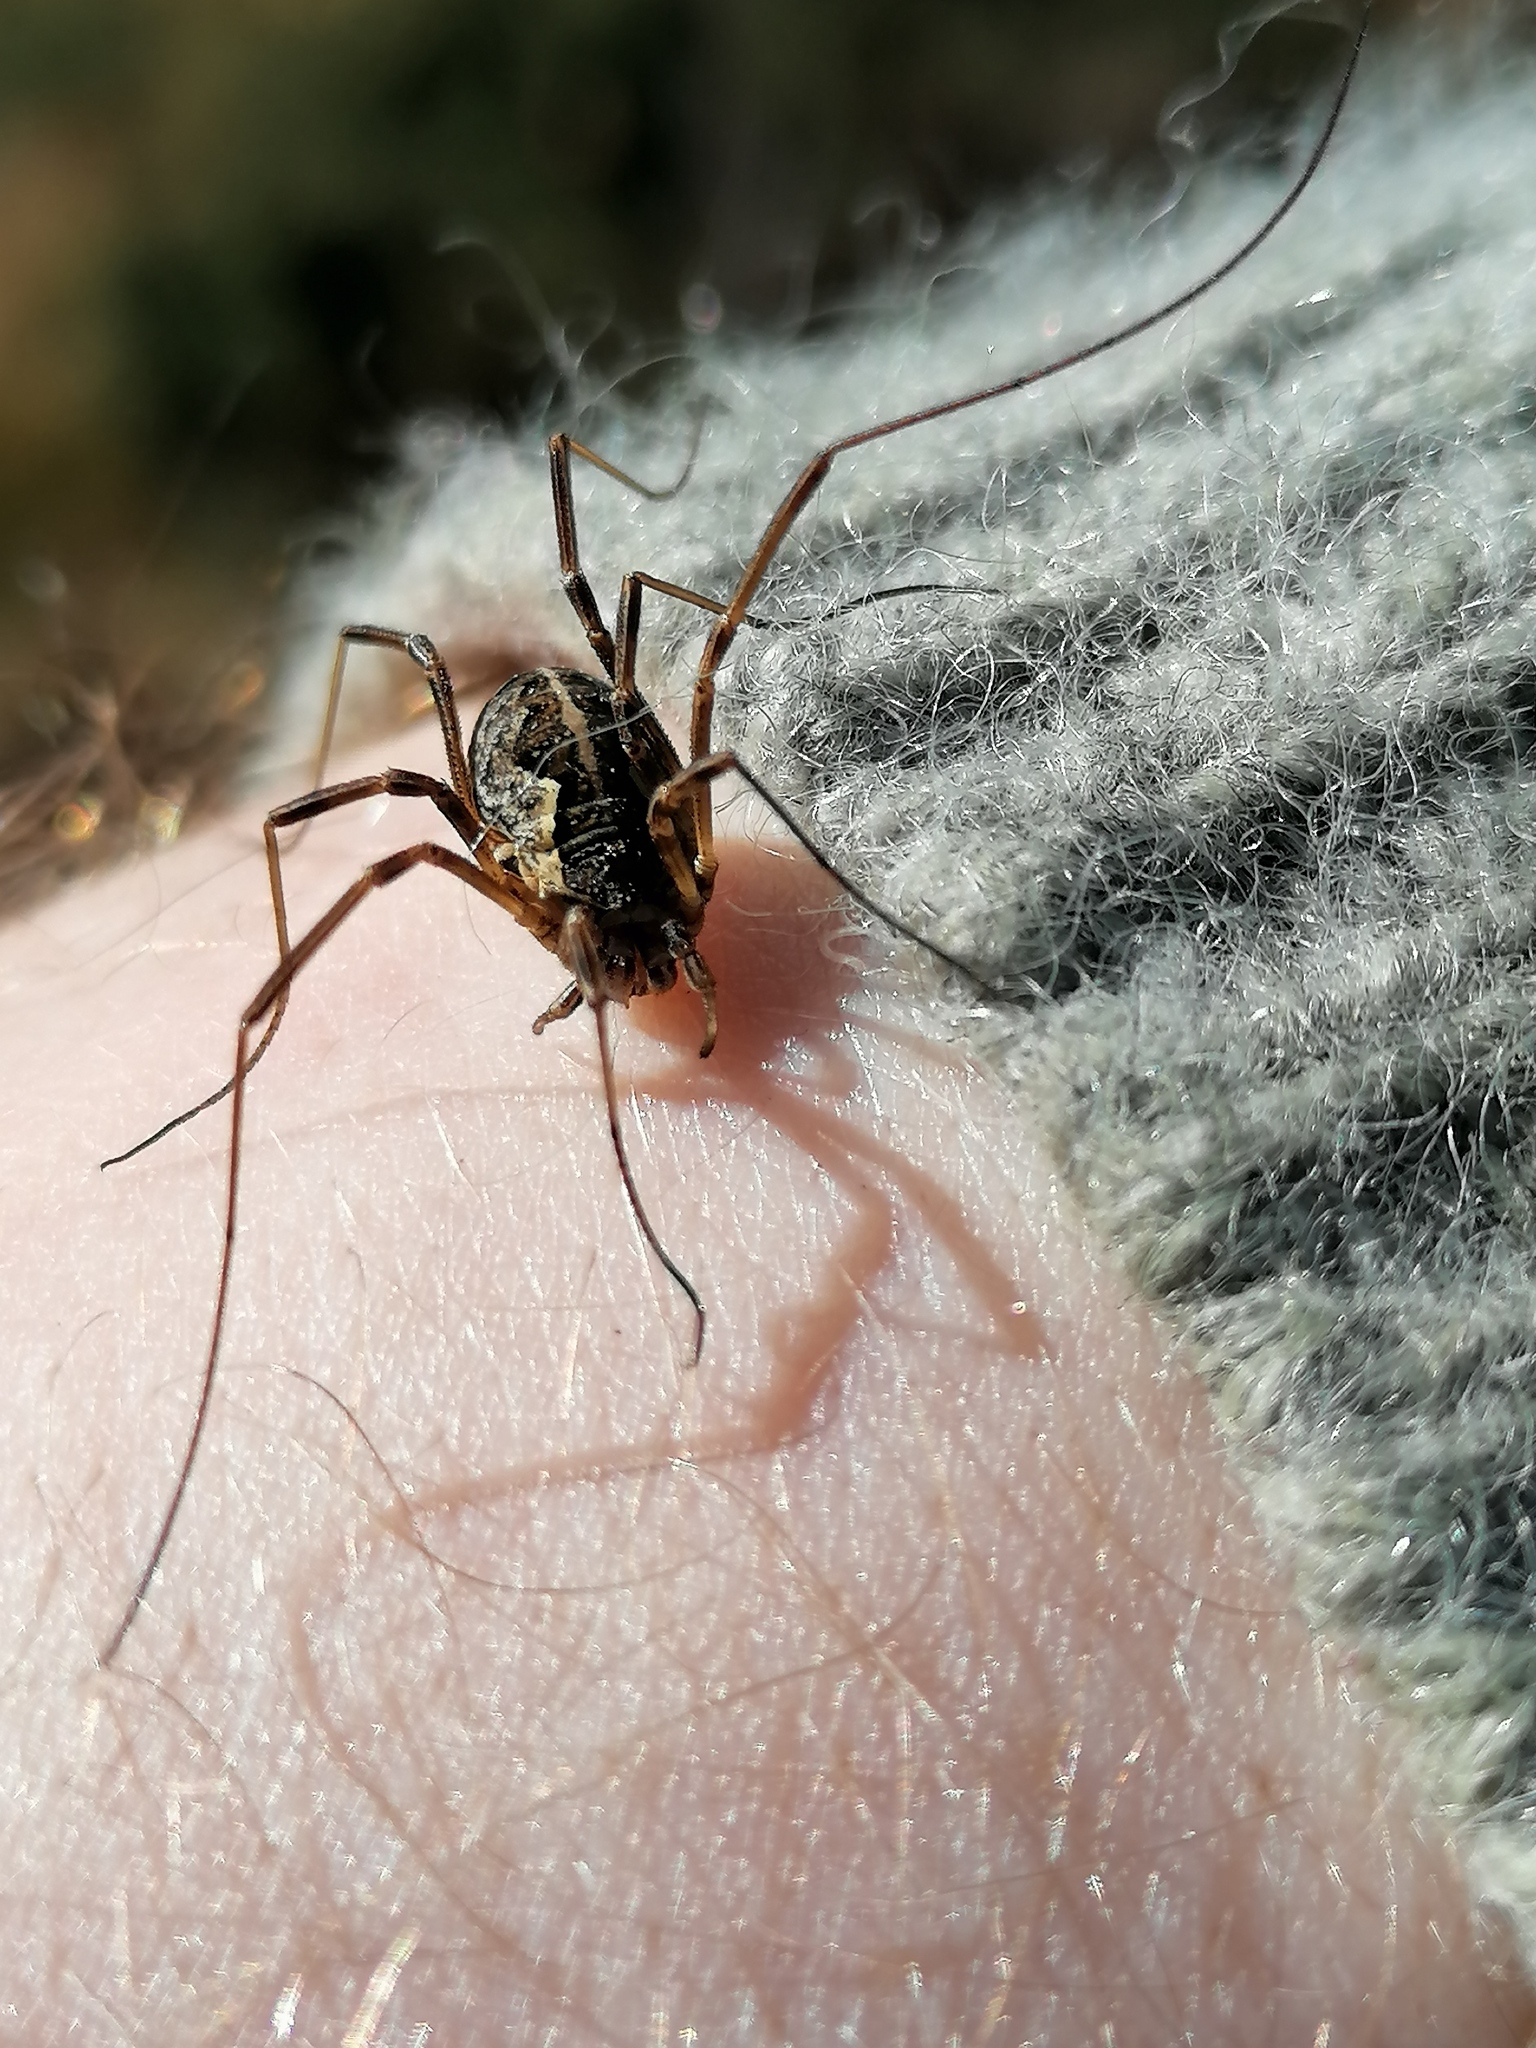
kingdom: Animalia
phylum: Arthropoda
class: Arachnida
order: Opiliones
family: Phalangiidae
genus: Mitopus
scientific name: Mitopus morio
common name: Saddleback harvestman
